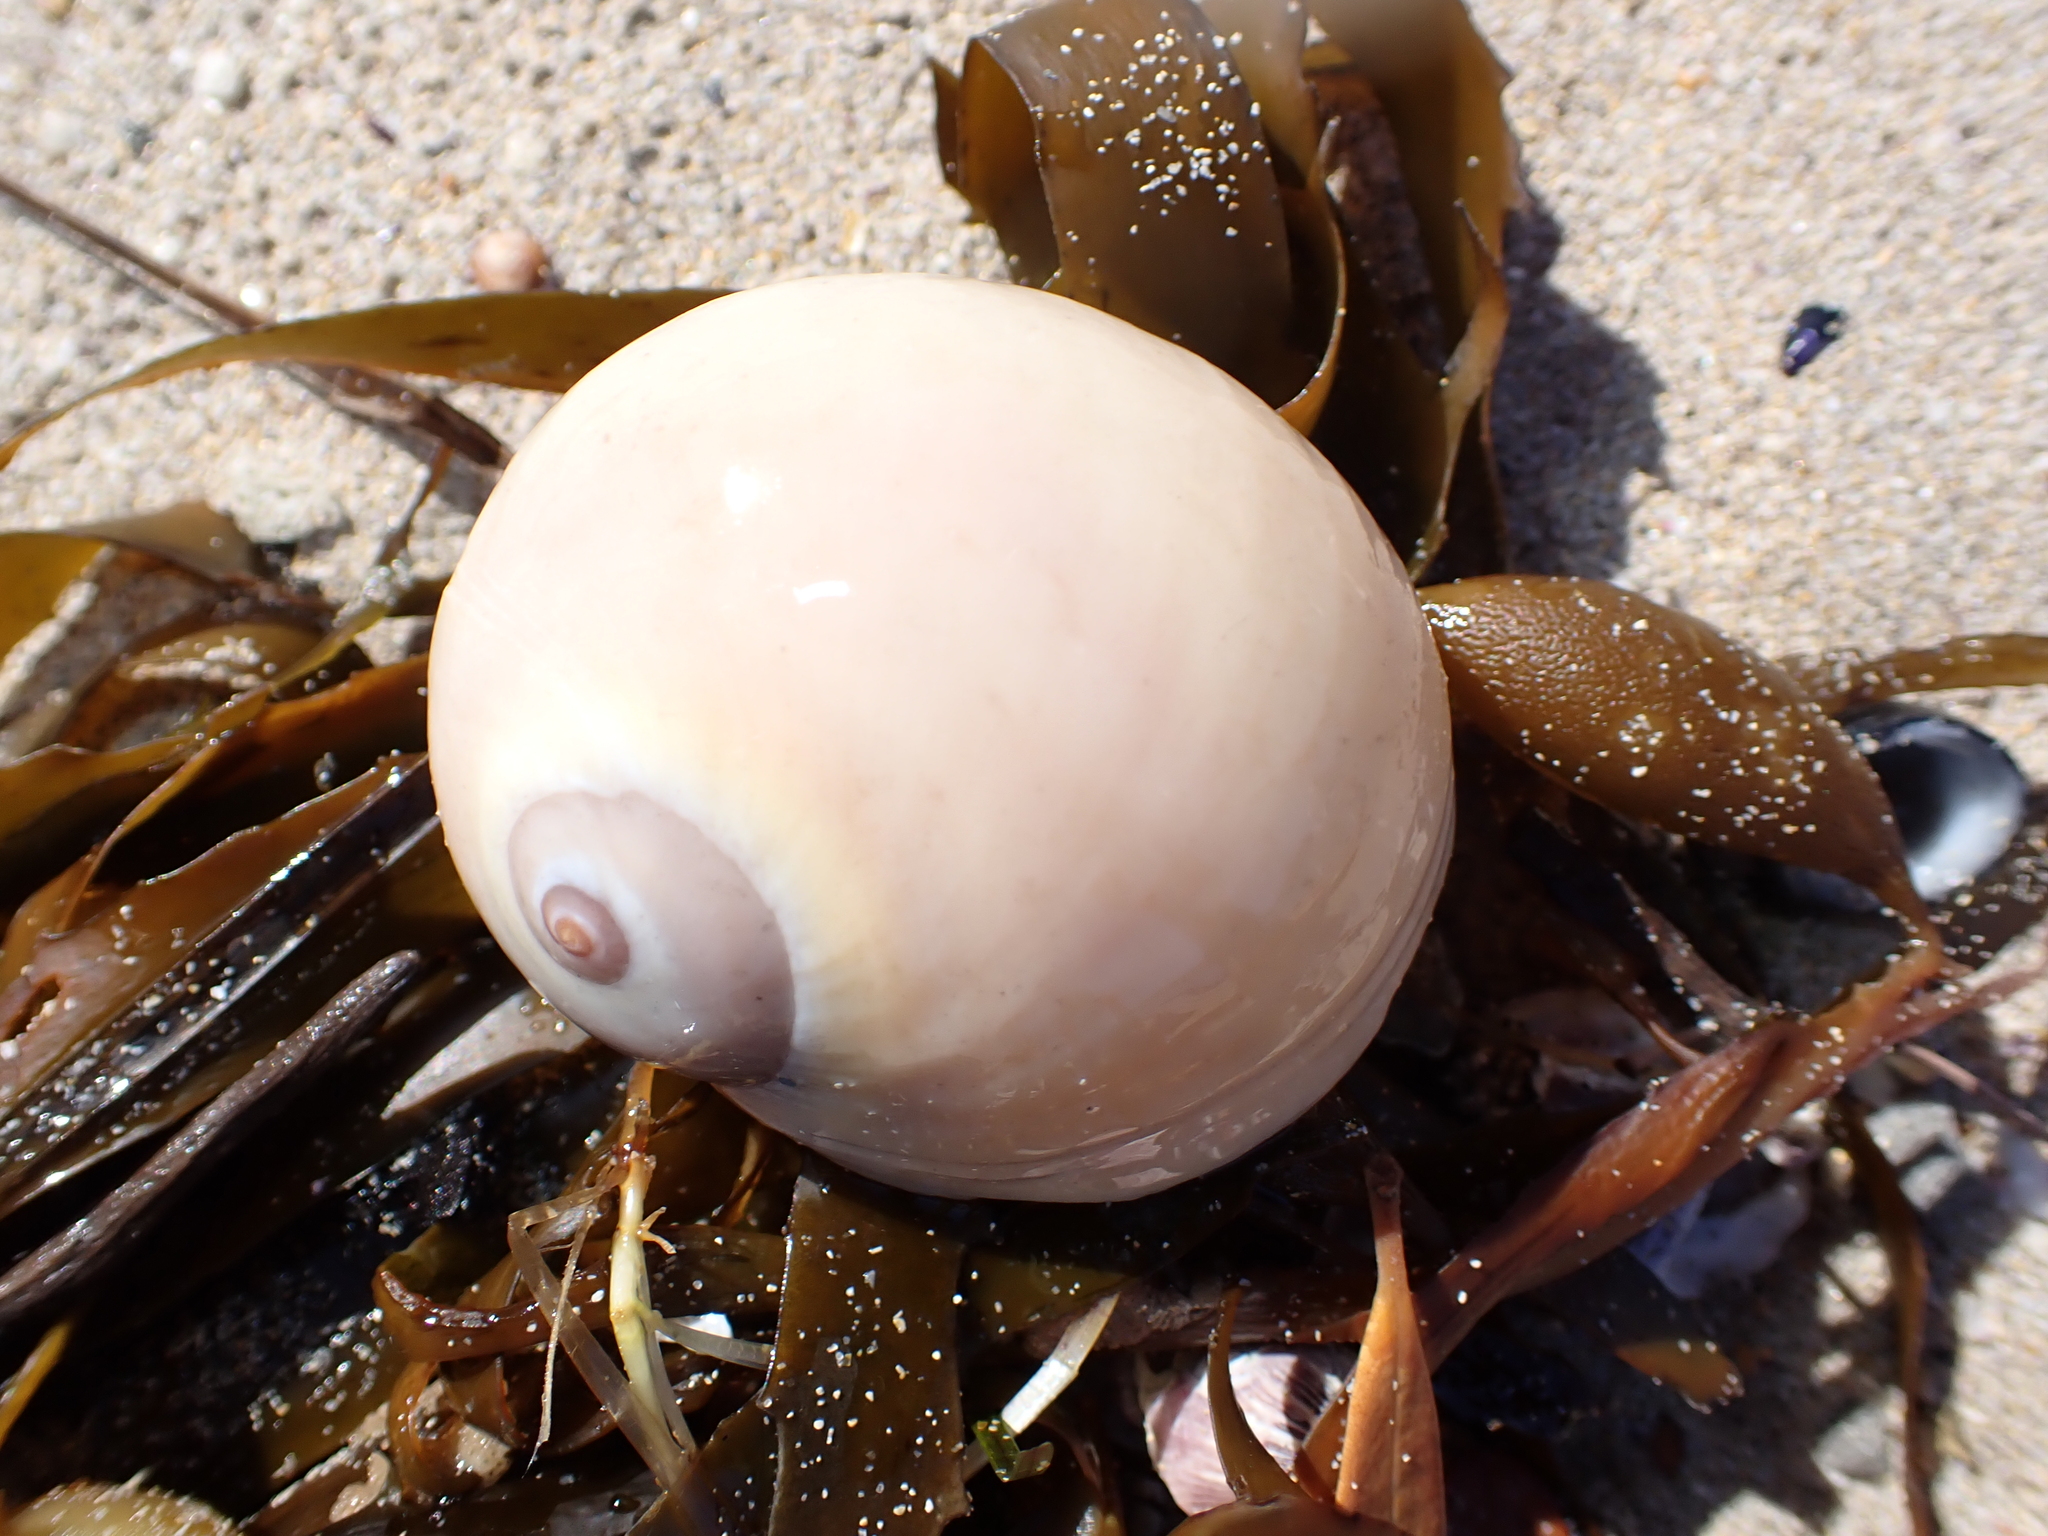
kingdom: Animalia
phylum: Mollusca
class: Gastropoda
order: Littorinimorpha
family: Naticidae
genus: Neverita
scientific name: Neverita didyma
